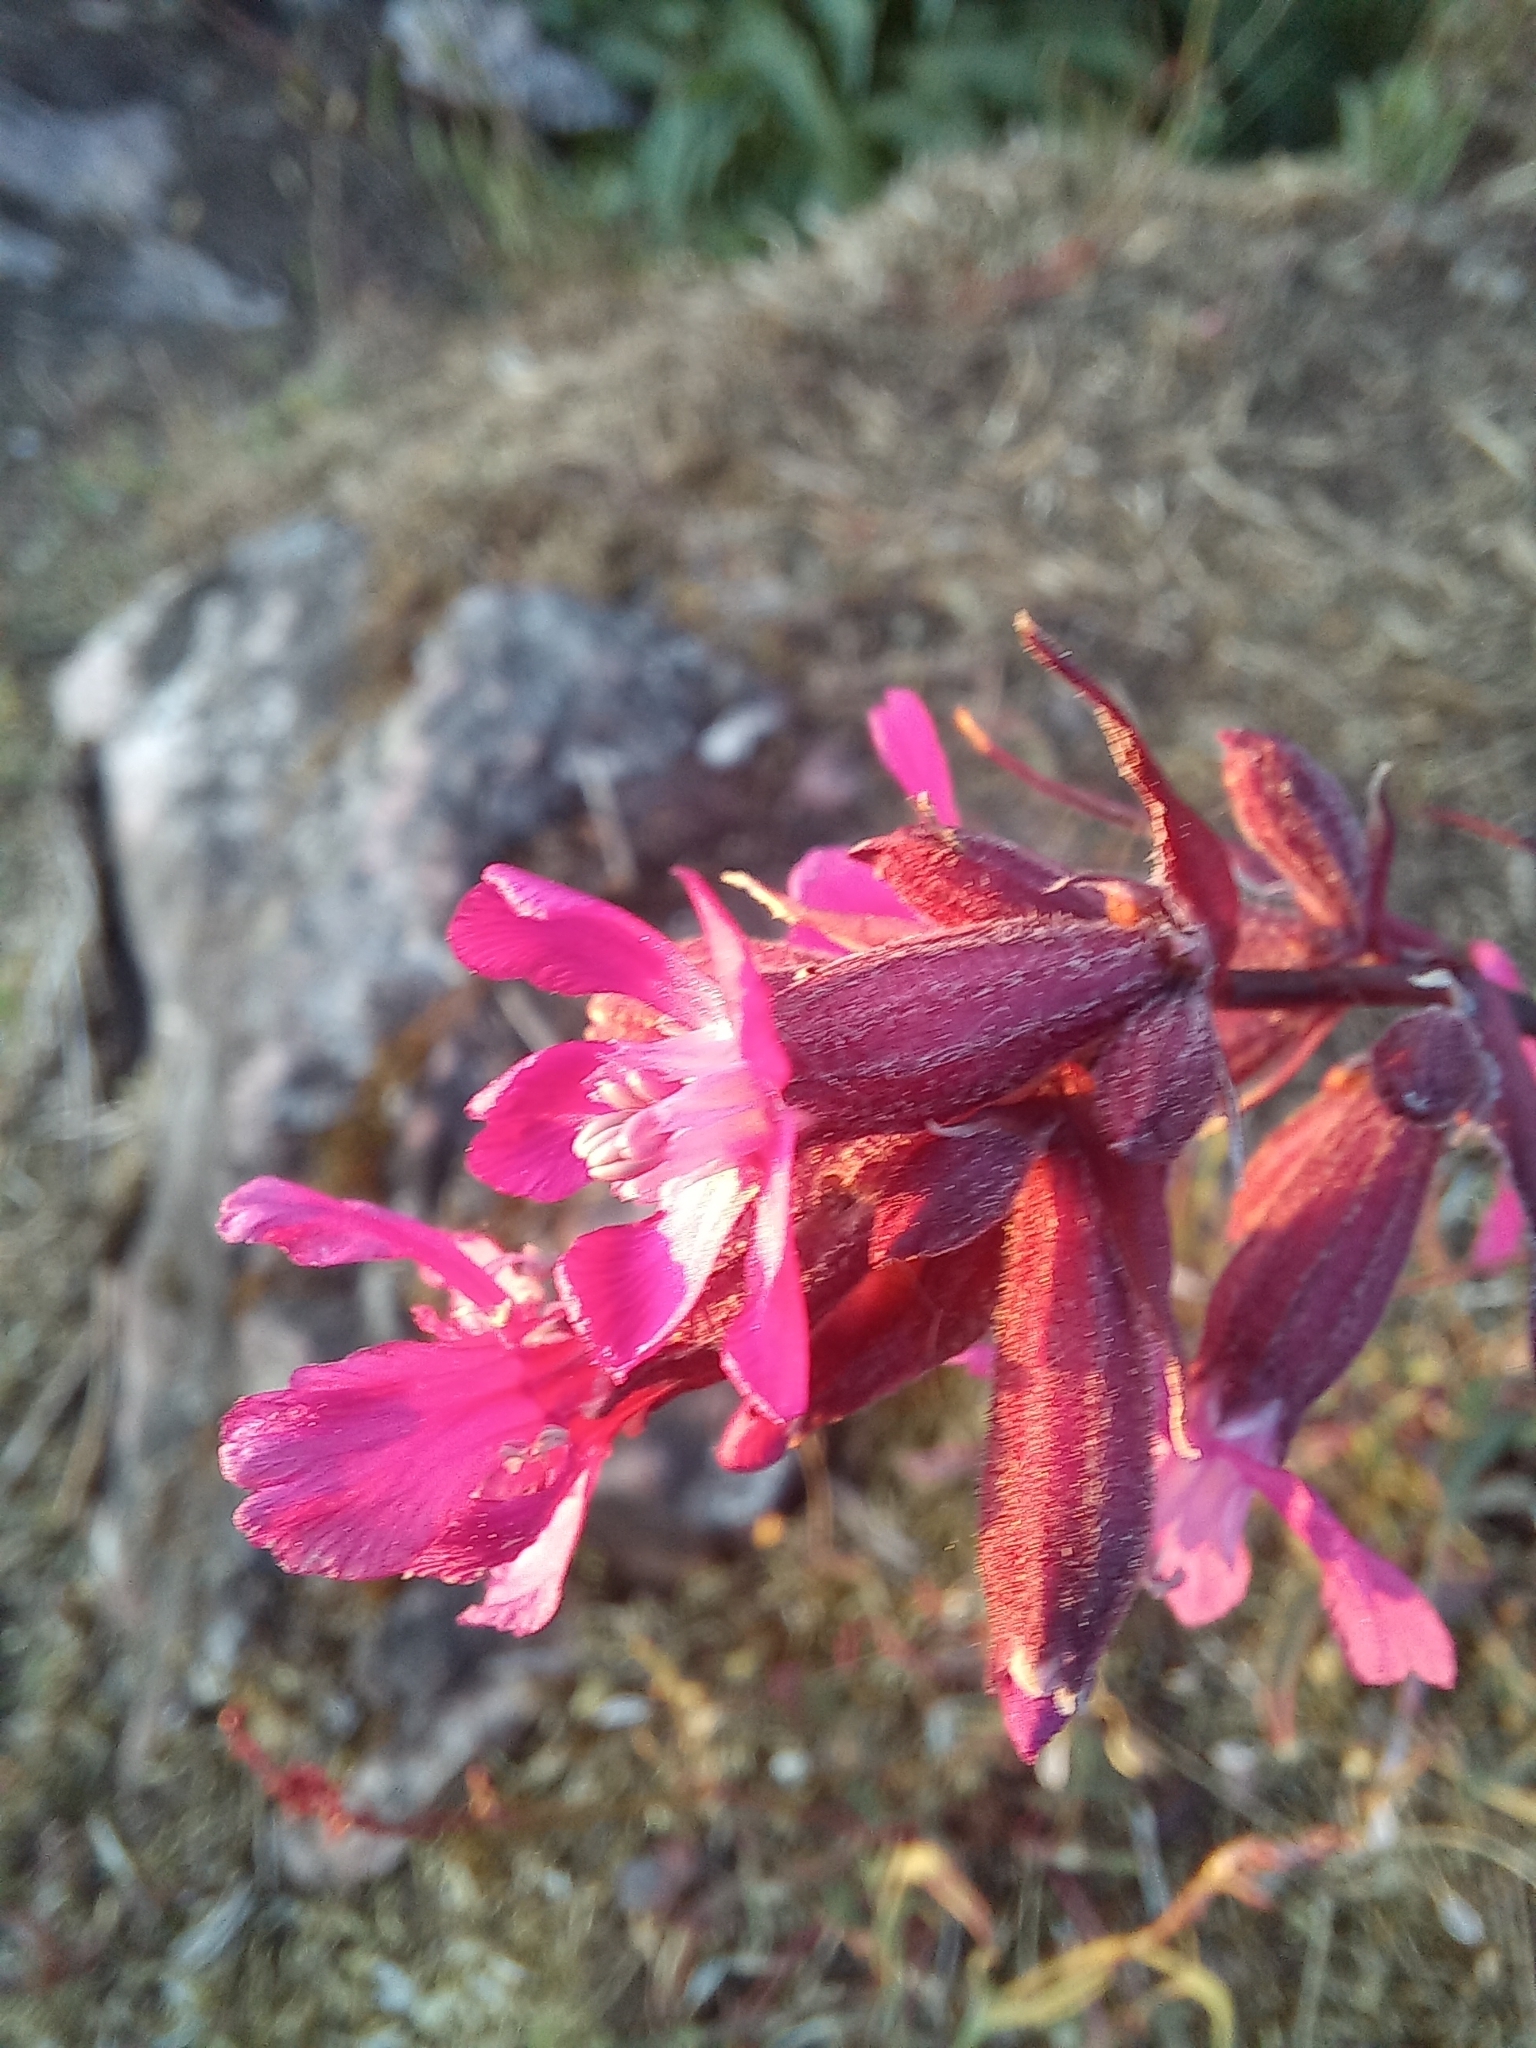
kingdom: Plantae
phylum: Tracheophyta
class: Magnoliopsida
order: Caryophyllales
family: Caryophyllaceae
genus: Viscaria
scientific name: Viscaria vulgaris
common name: Clammy campion
